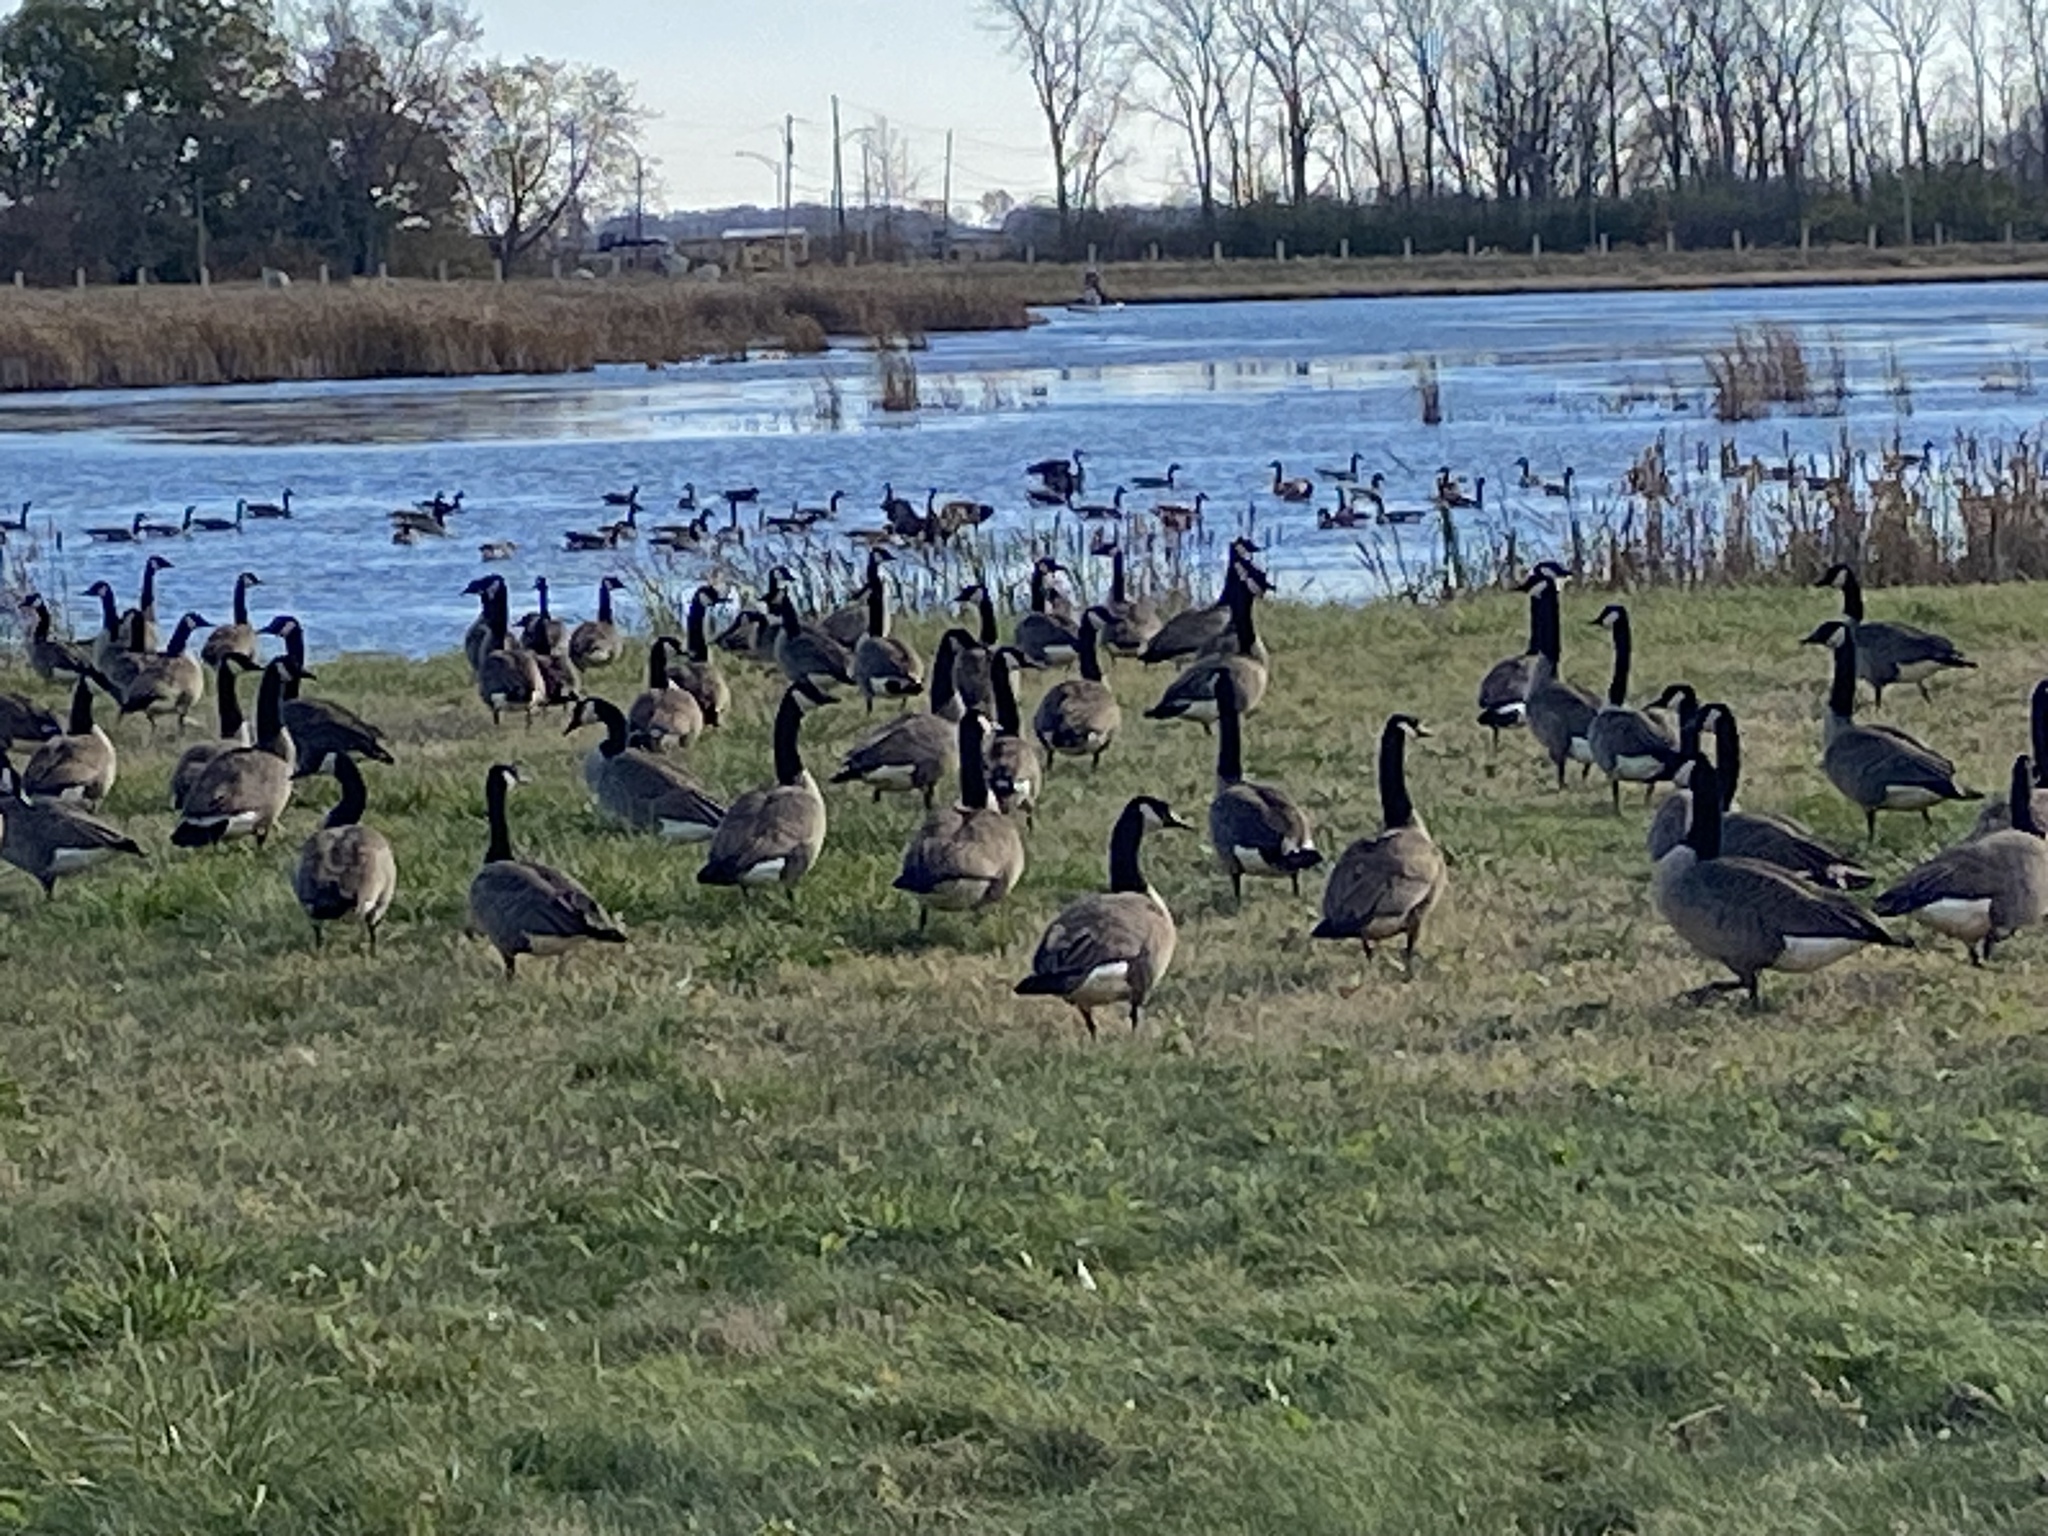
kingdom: Animalia
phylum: Chordata
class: Aves
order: Anseriformes
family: Anatidae
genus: Branta
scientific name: Branta canadensis
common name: Canada goose
